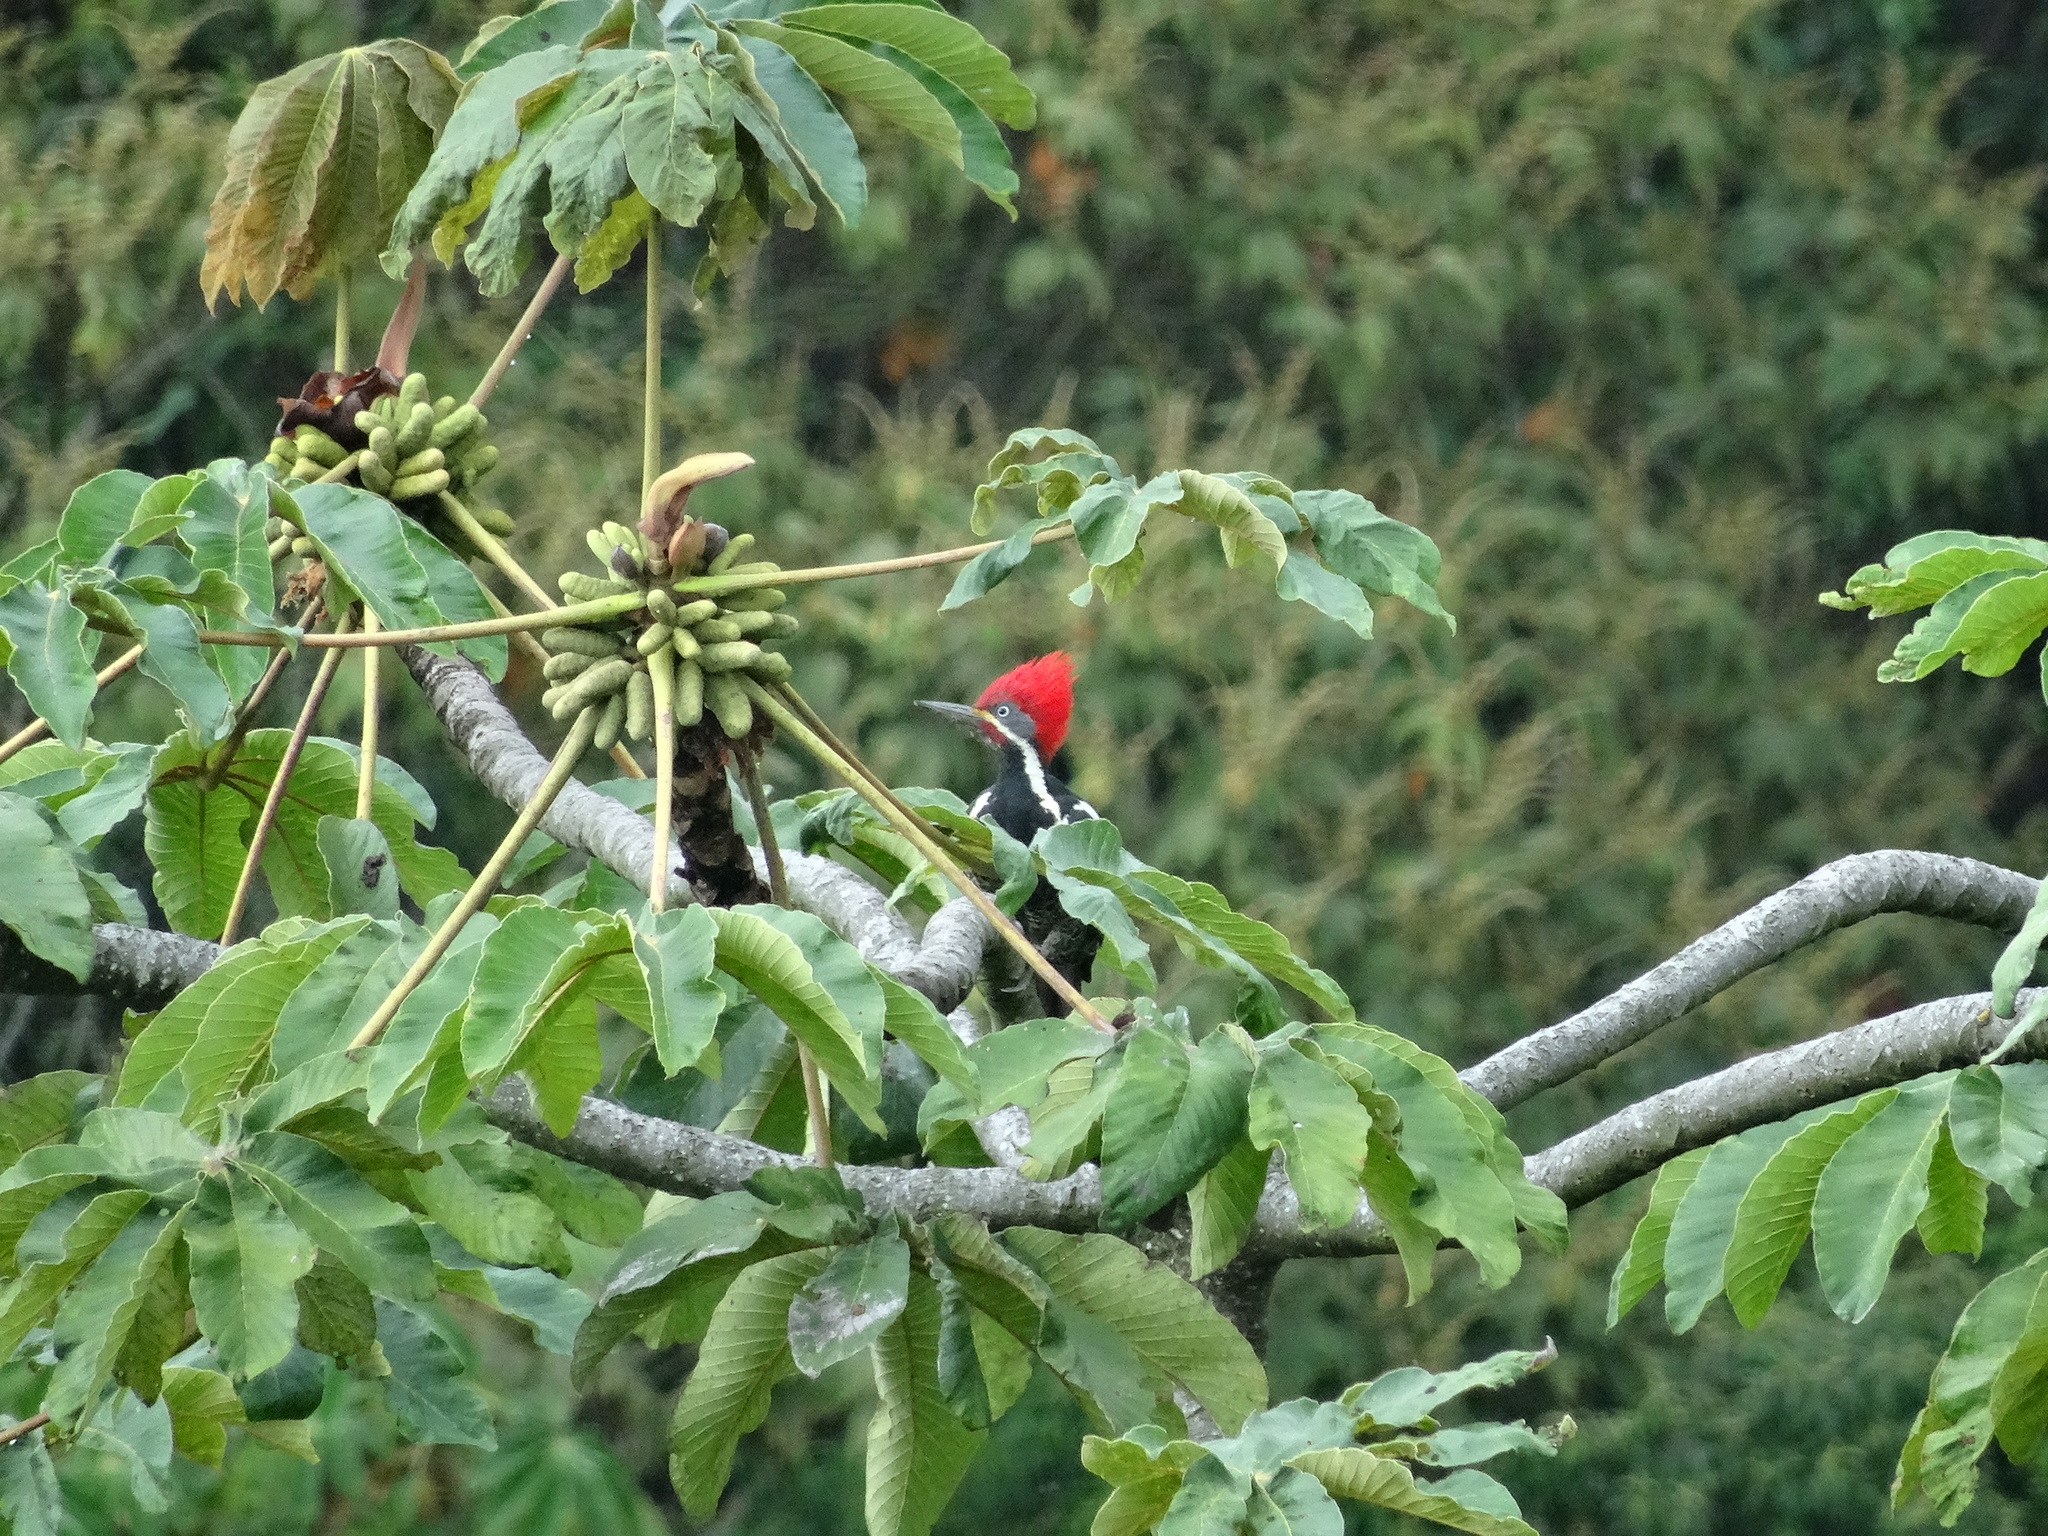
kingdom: Animalia
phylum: Chordata
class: Aves
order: Piciformes
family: Picidae
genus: Dryocopus
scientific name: Dryocopus lineatus
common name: Lineated woodpecker
